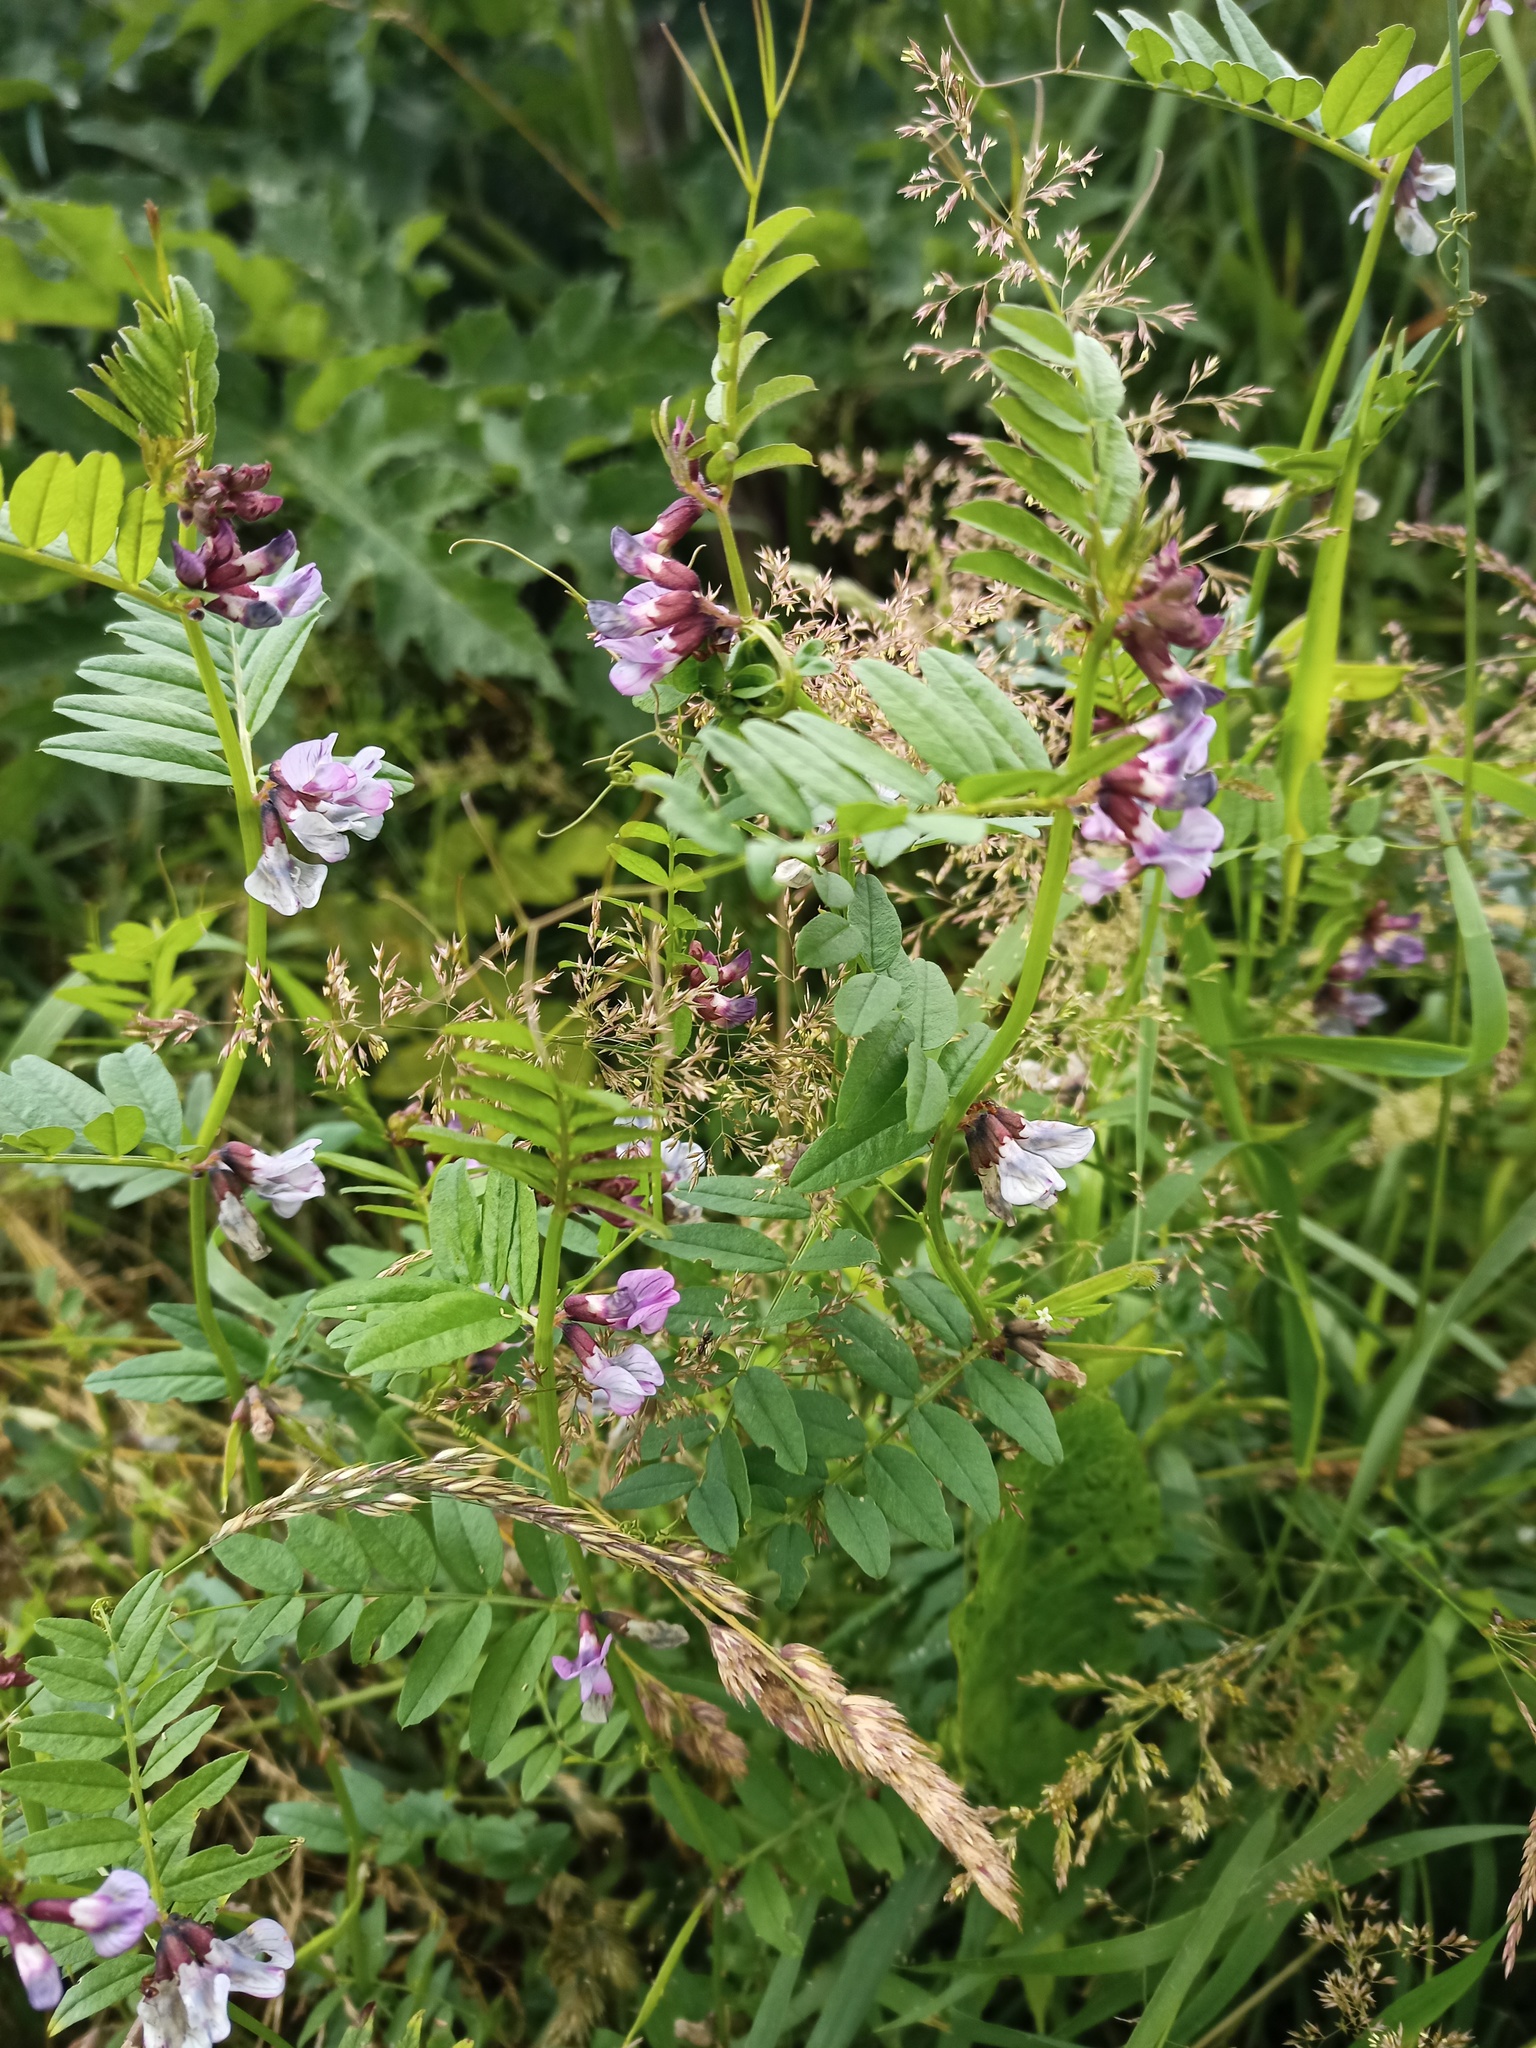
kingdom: Plantae
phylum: Tracheophyta
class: Magnoliopsida
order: Fabales
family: Fabaceae
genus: Vicia
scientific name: Vicia sepium
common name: Bush vetch
